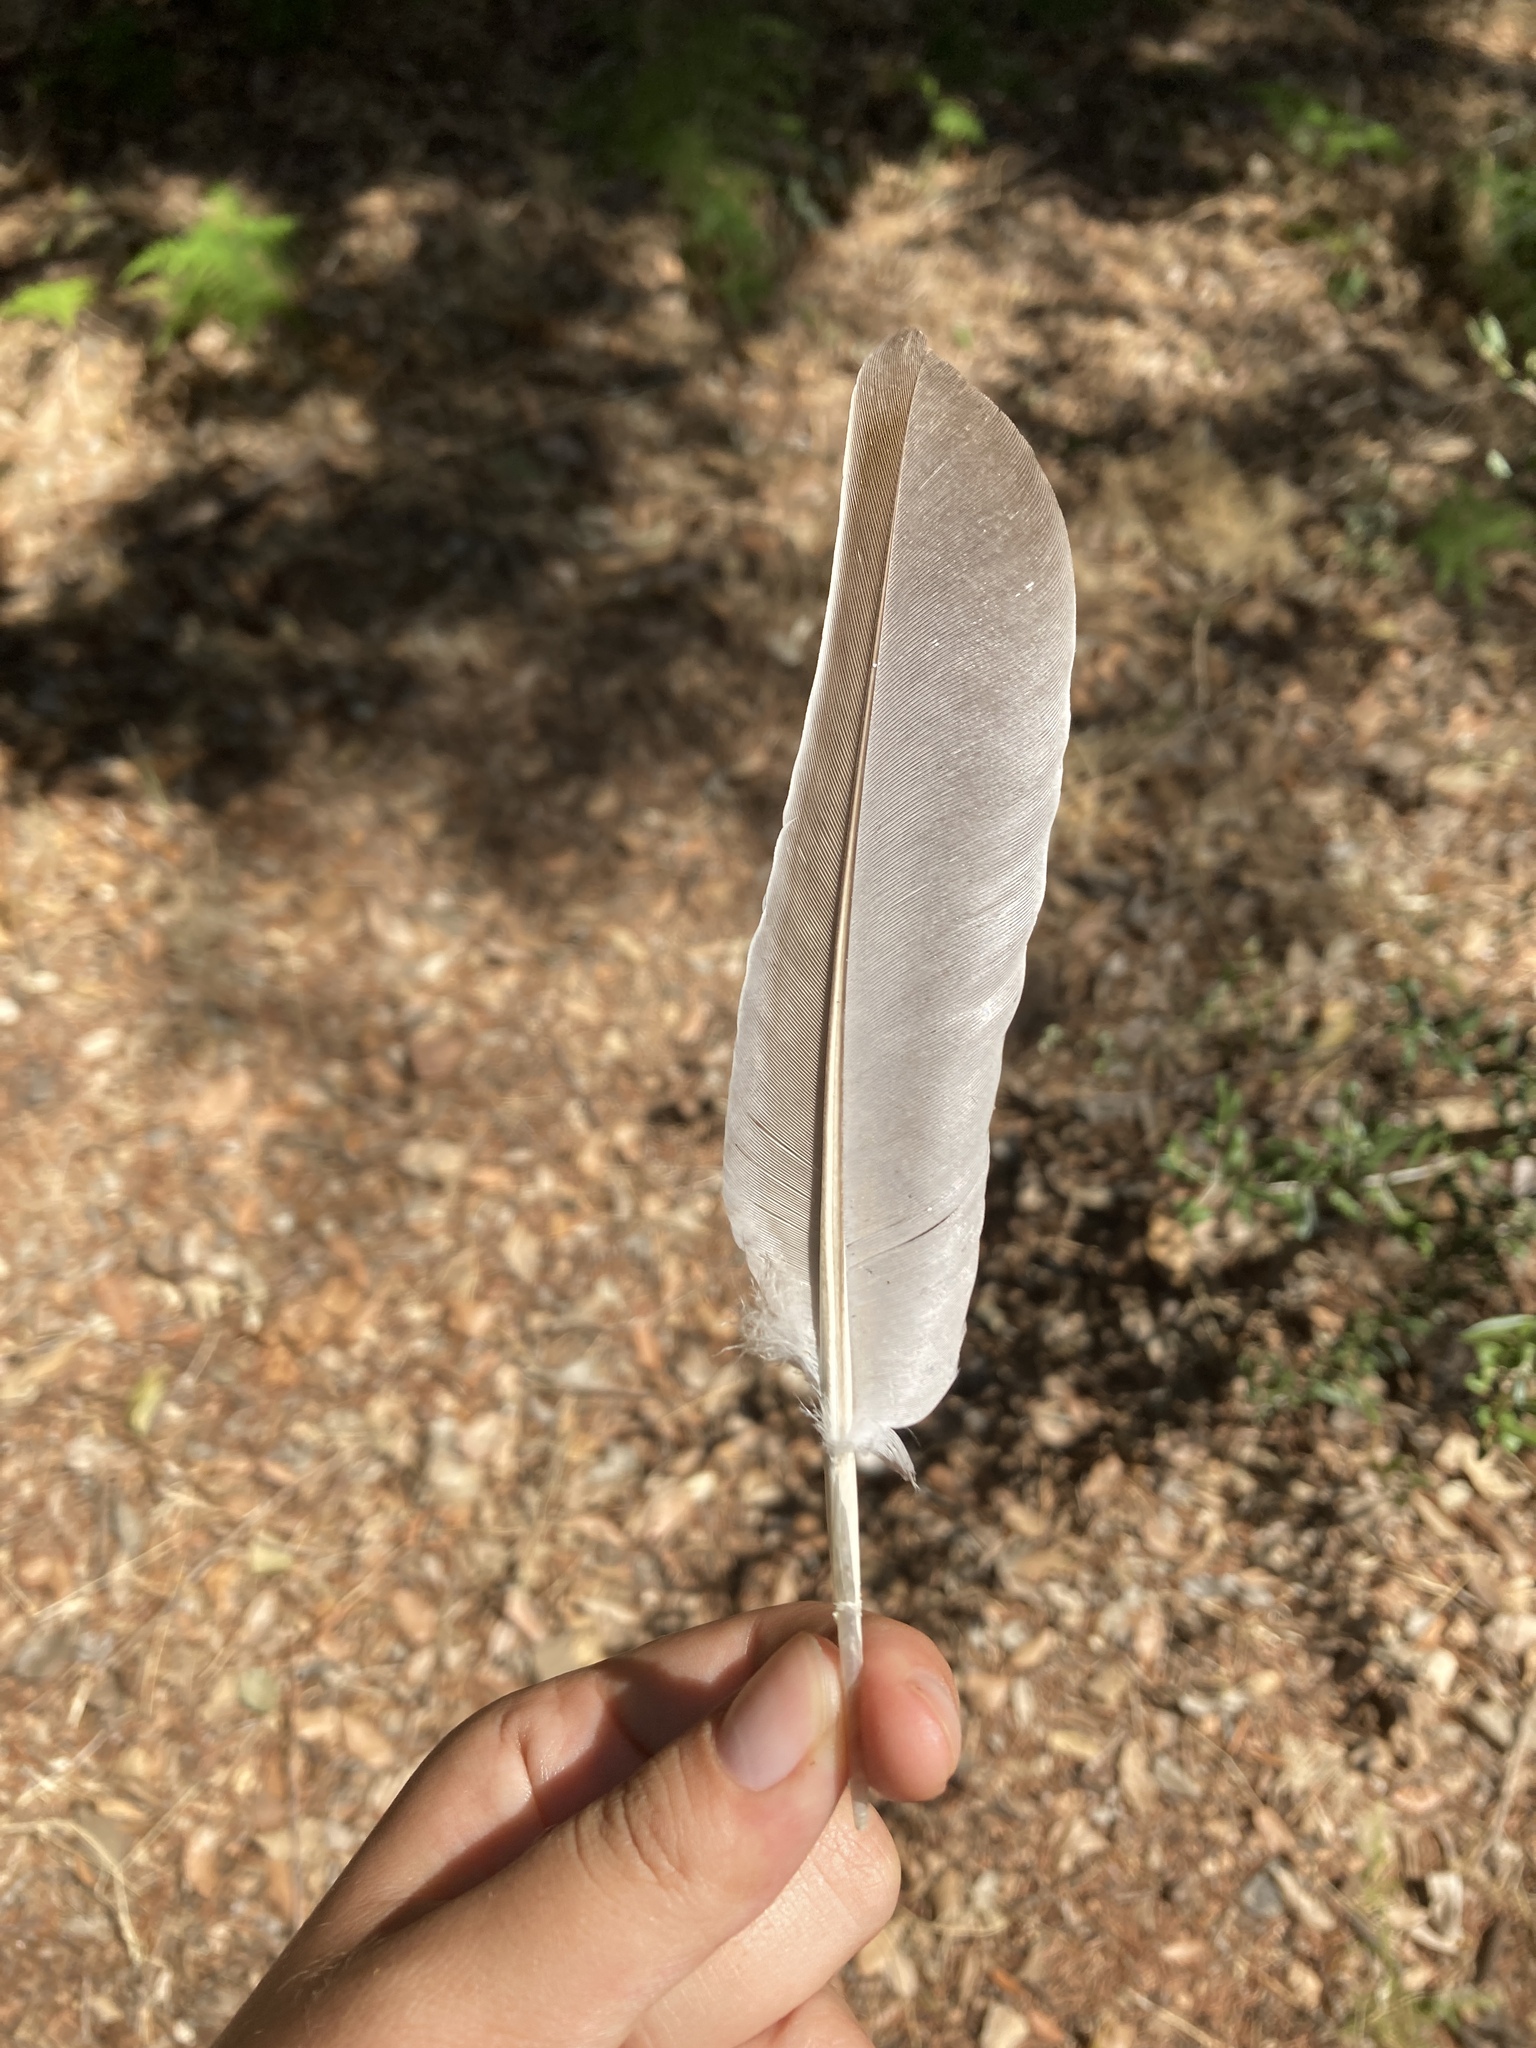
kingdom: Animalia
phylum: Chordata
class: Aves
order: Columbiformes
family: Columbidae
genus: Columba
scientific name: Columba palumbus
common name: Common wood pigeon
